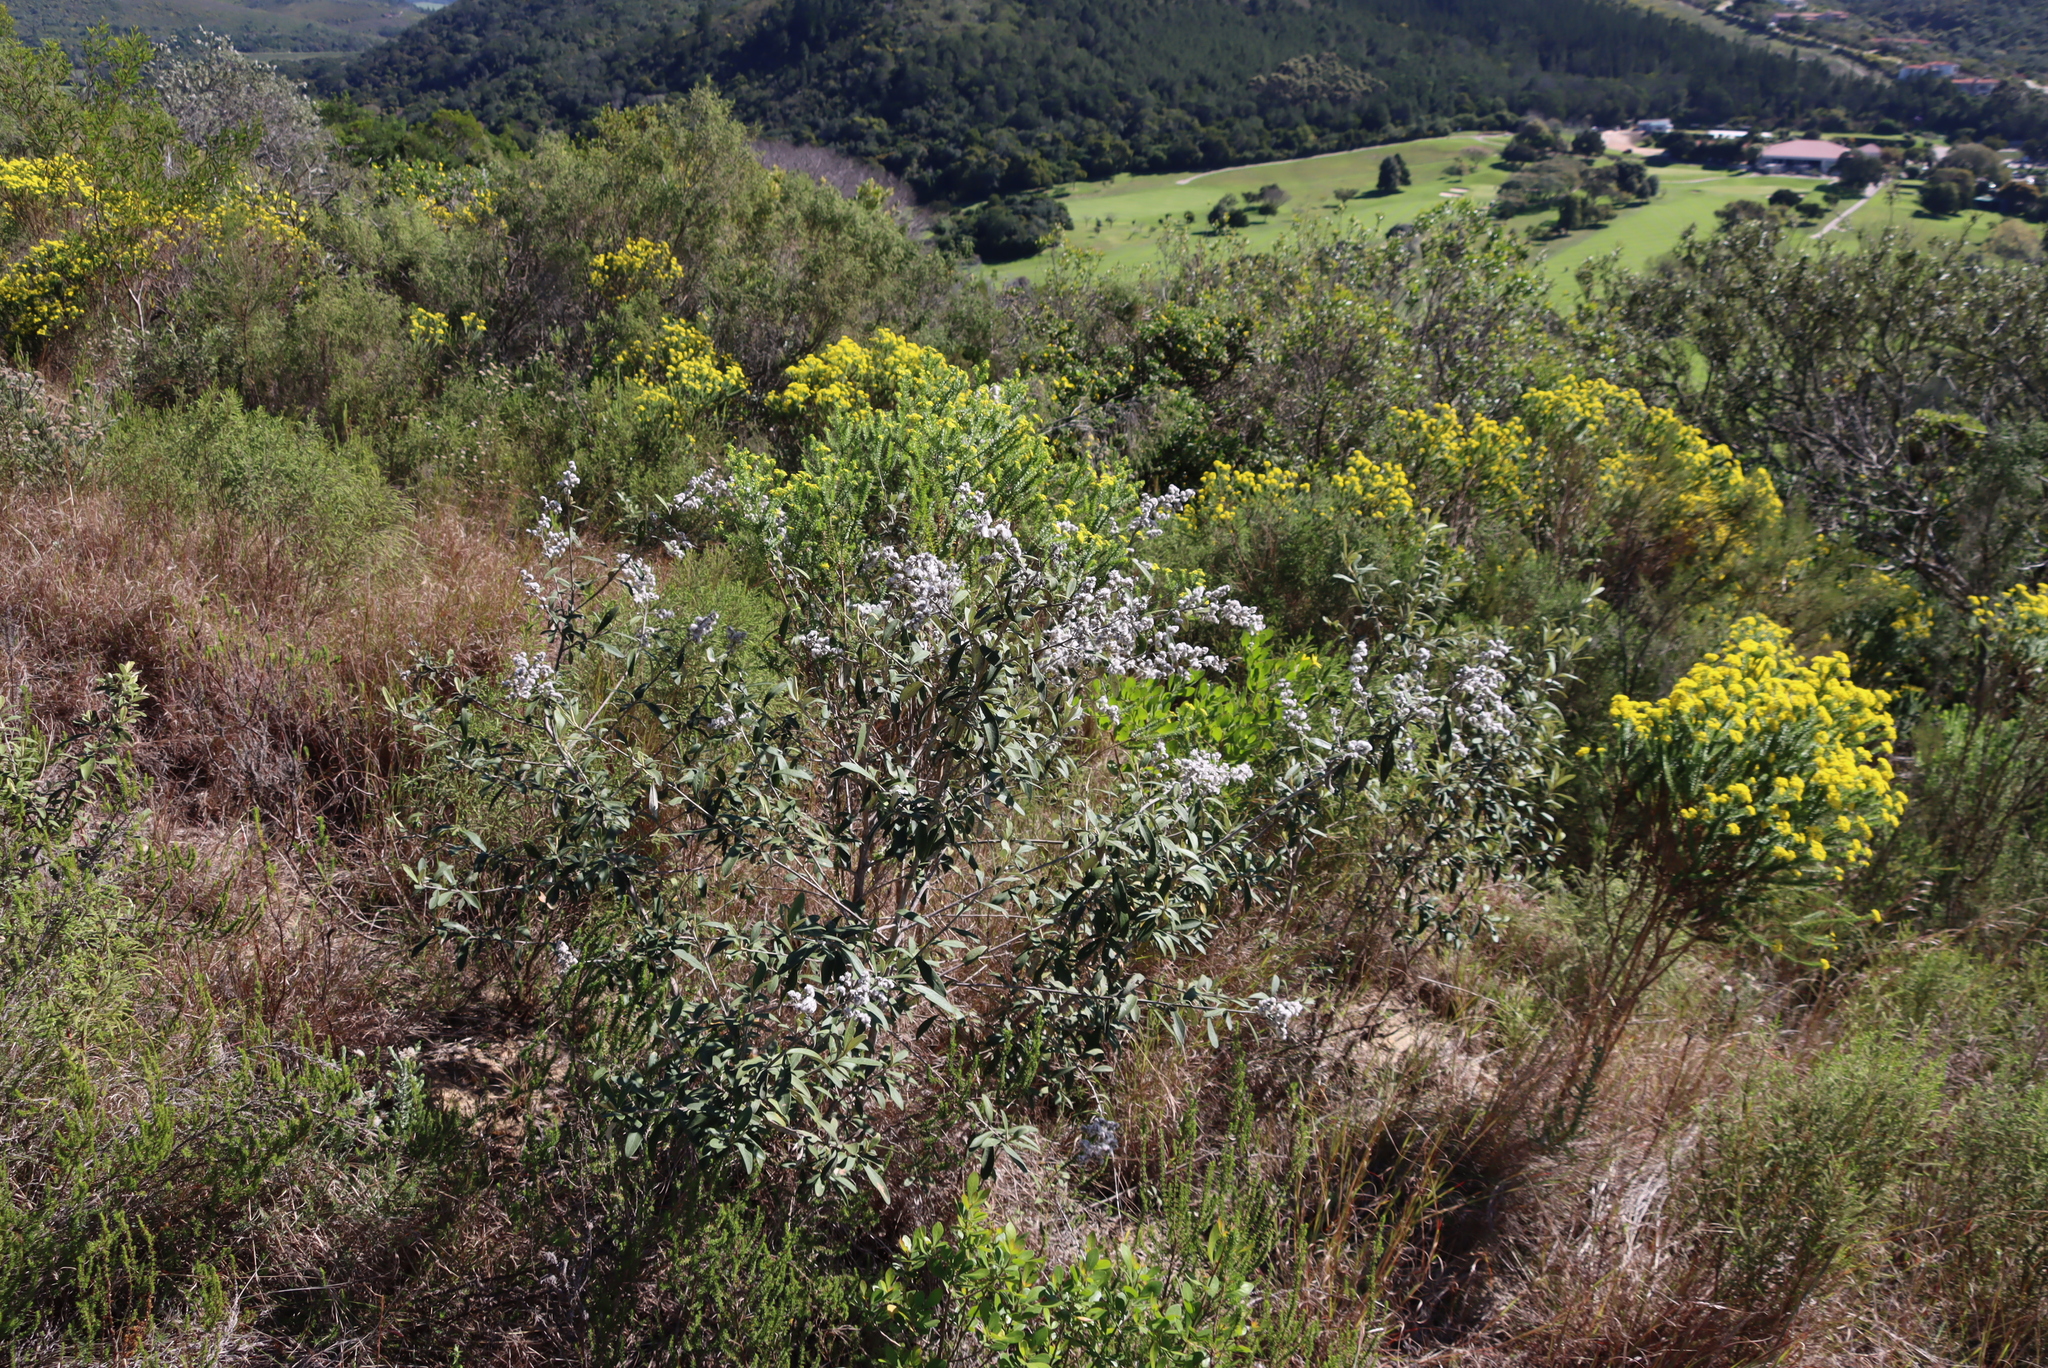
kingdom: Plantae
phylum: Tracheophyta
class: Magnoliopsida
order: Asterales
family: Asteraceae
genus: Tarchonanthus
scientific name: Tarchonanthus littoralis
